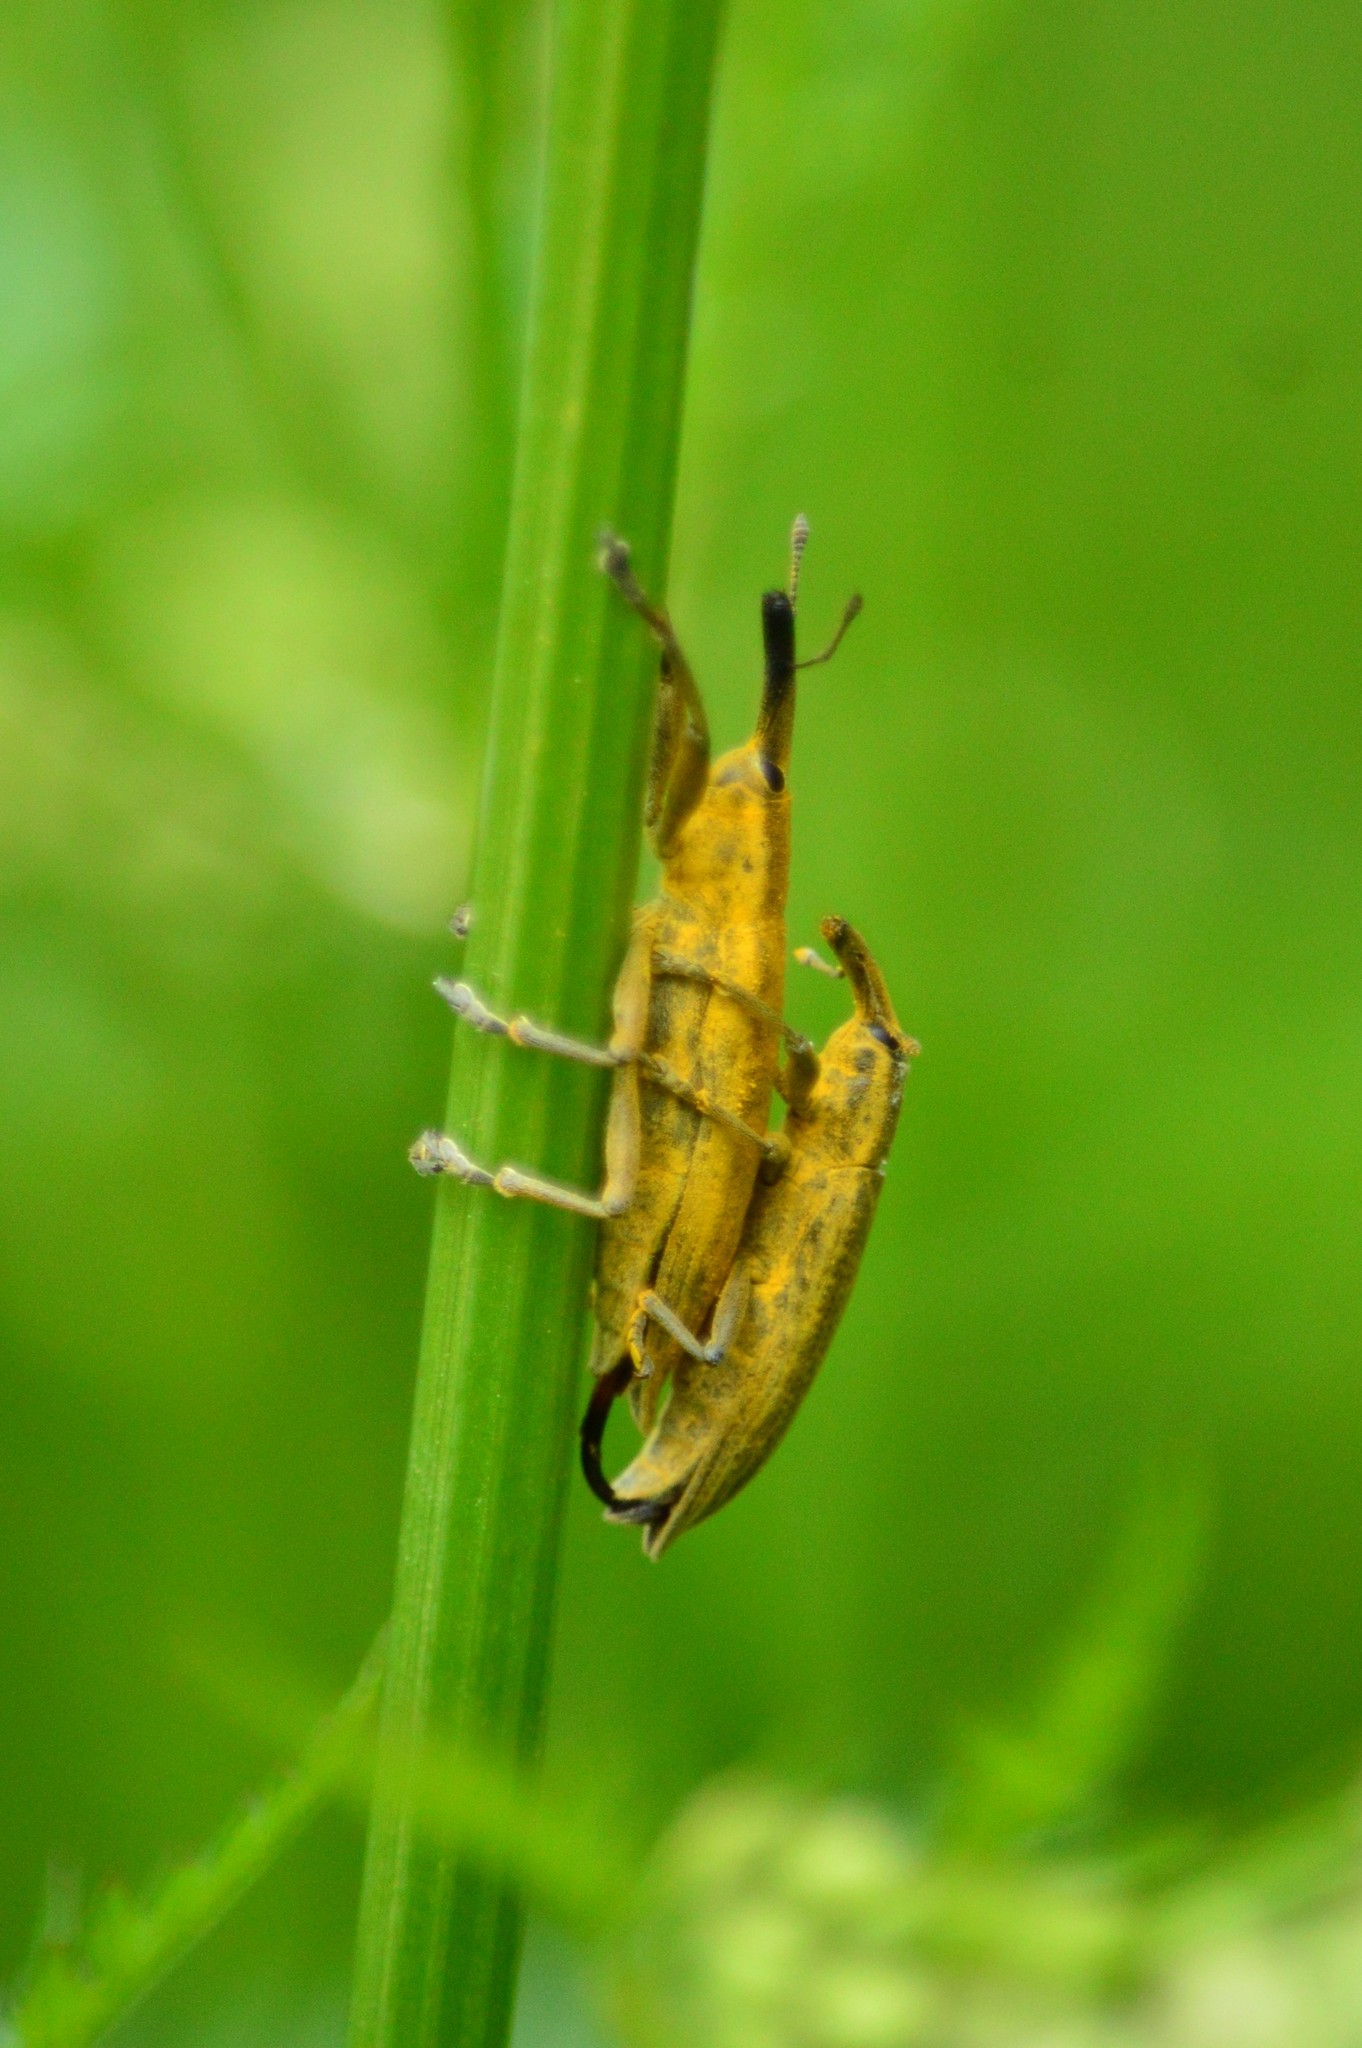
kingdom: Animalia
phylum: Arthropoda
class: Insecta
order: Coleoptera
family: Curculionidae
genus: Lixus
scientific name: Lixus iridis
